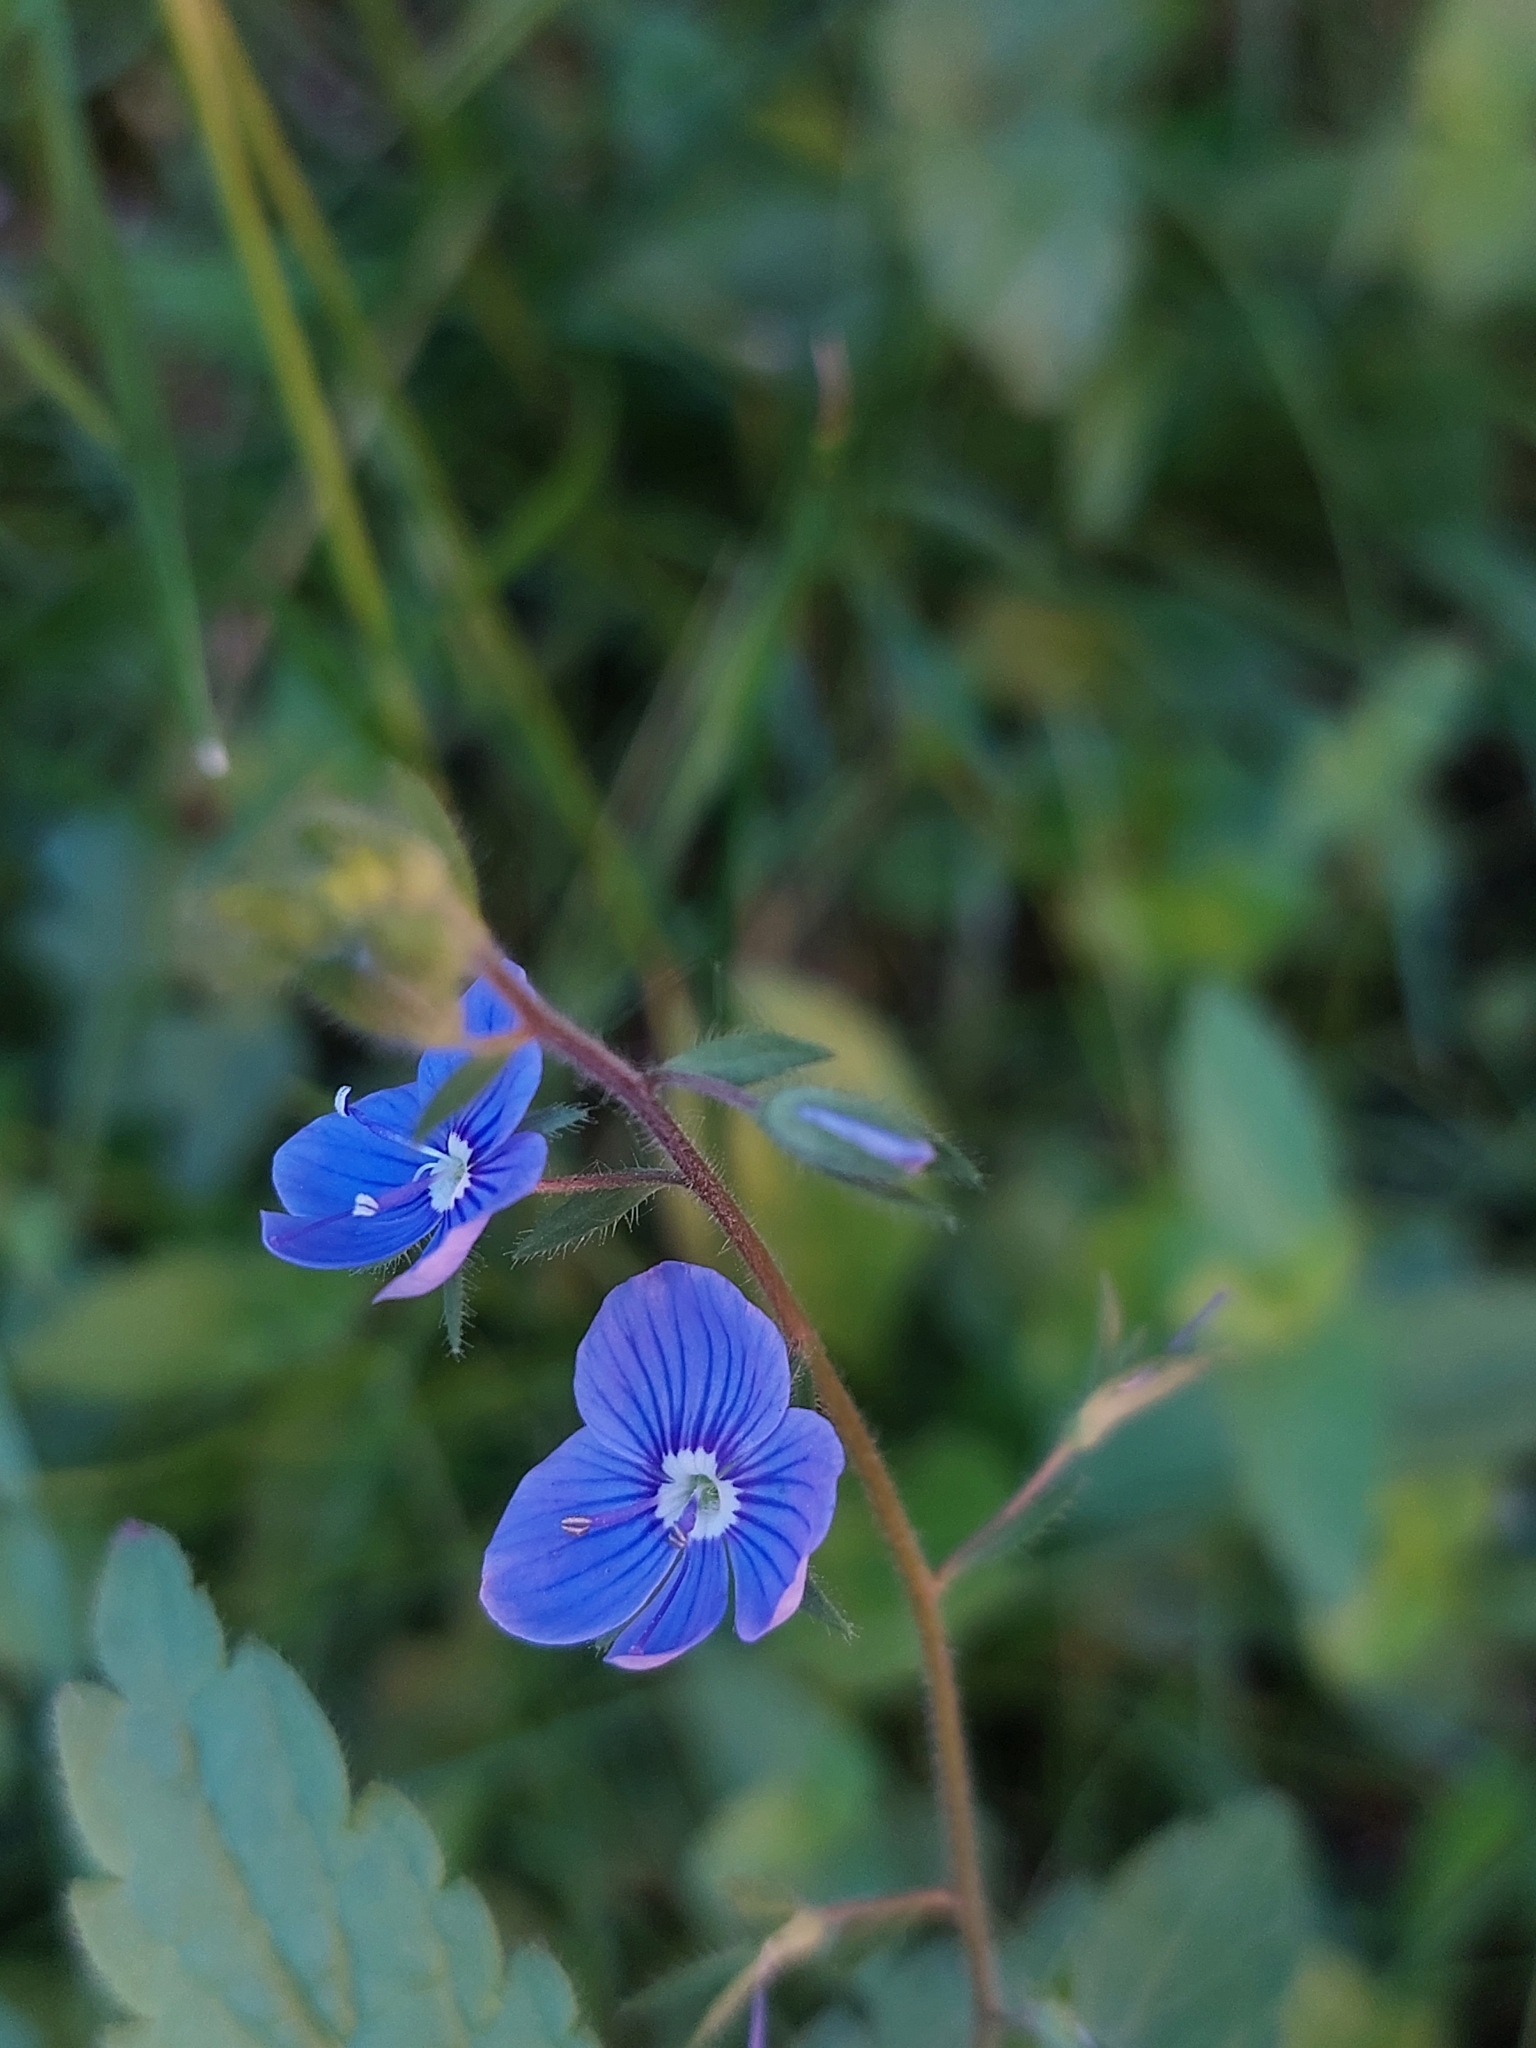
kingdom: Plantae
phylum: Tracheophyta
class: Magnoliopsida
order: Lamiales
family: Plantaginaceae
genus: Veronica
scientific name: Veronica chamaedrys
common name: Germander speedwell
